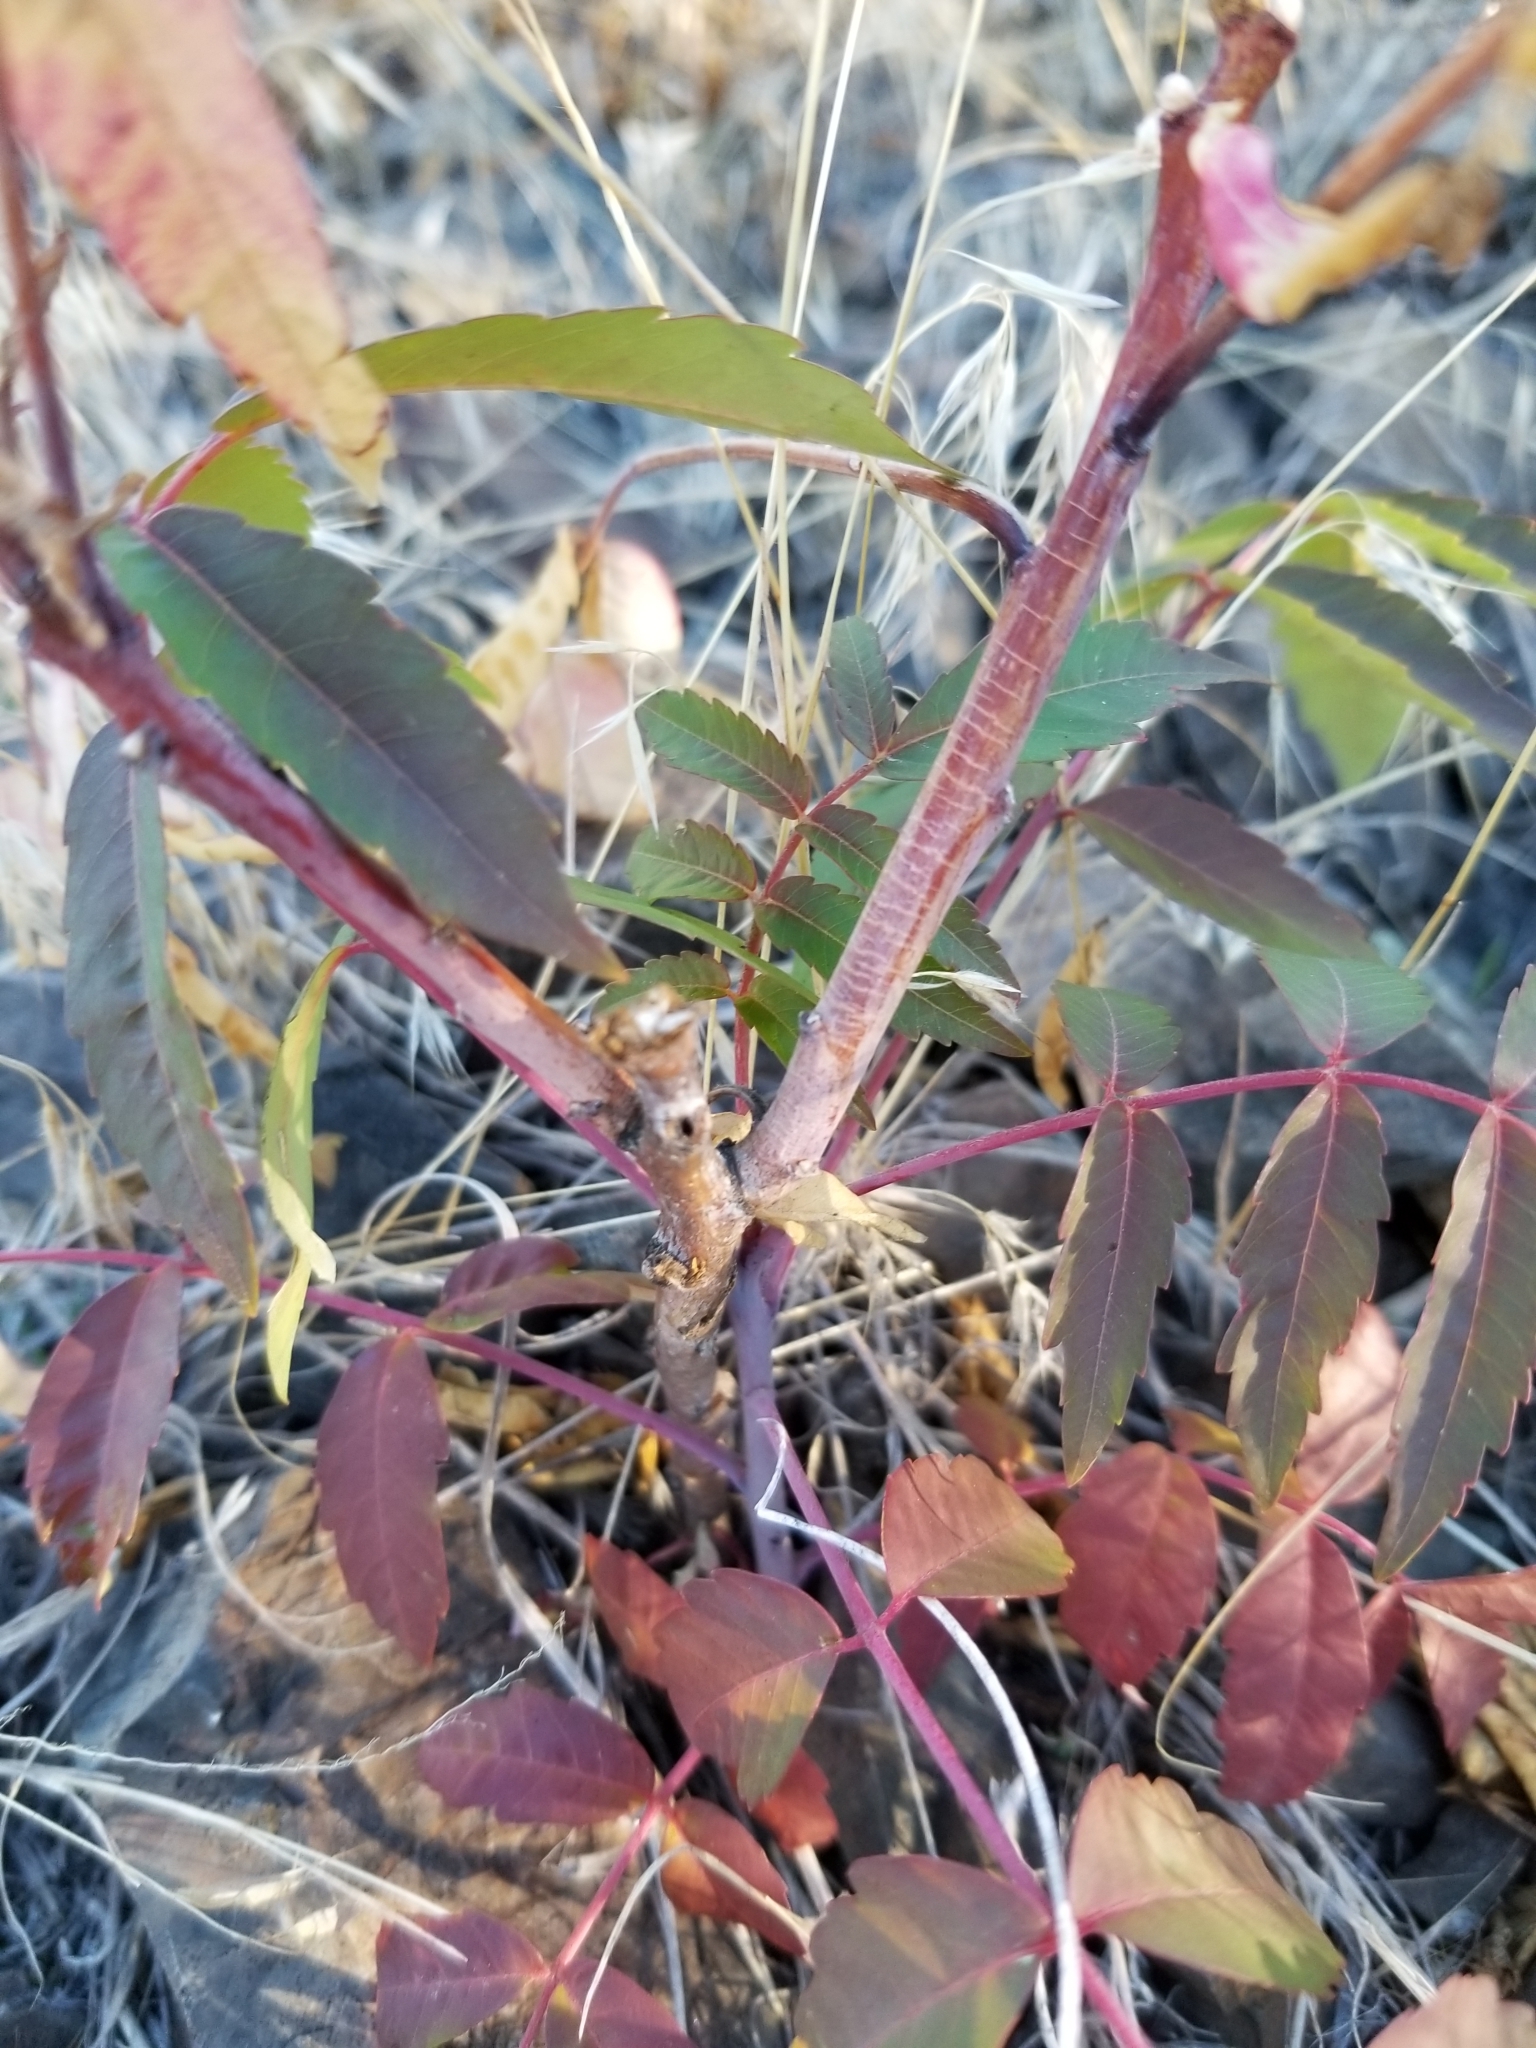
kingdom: Plantae
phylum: Tracheophyta
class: Magnoliopsida
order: Sapindales
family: Anacardiaceae
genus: Rhus
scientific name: Rhus glabra
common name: Scarlet sumac
